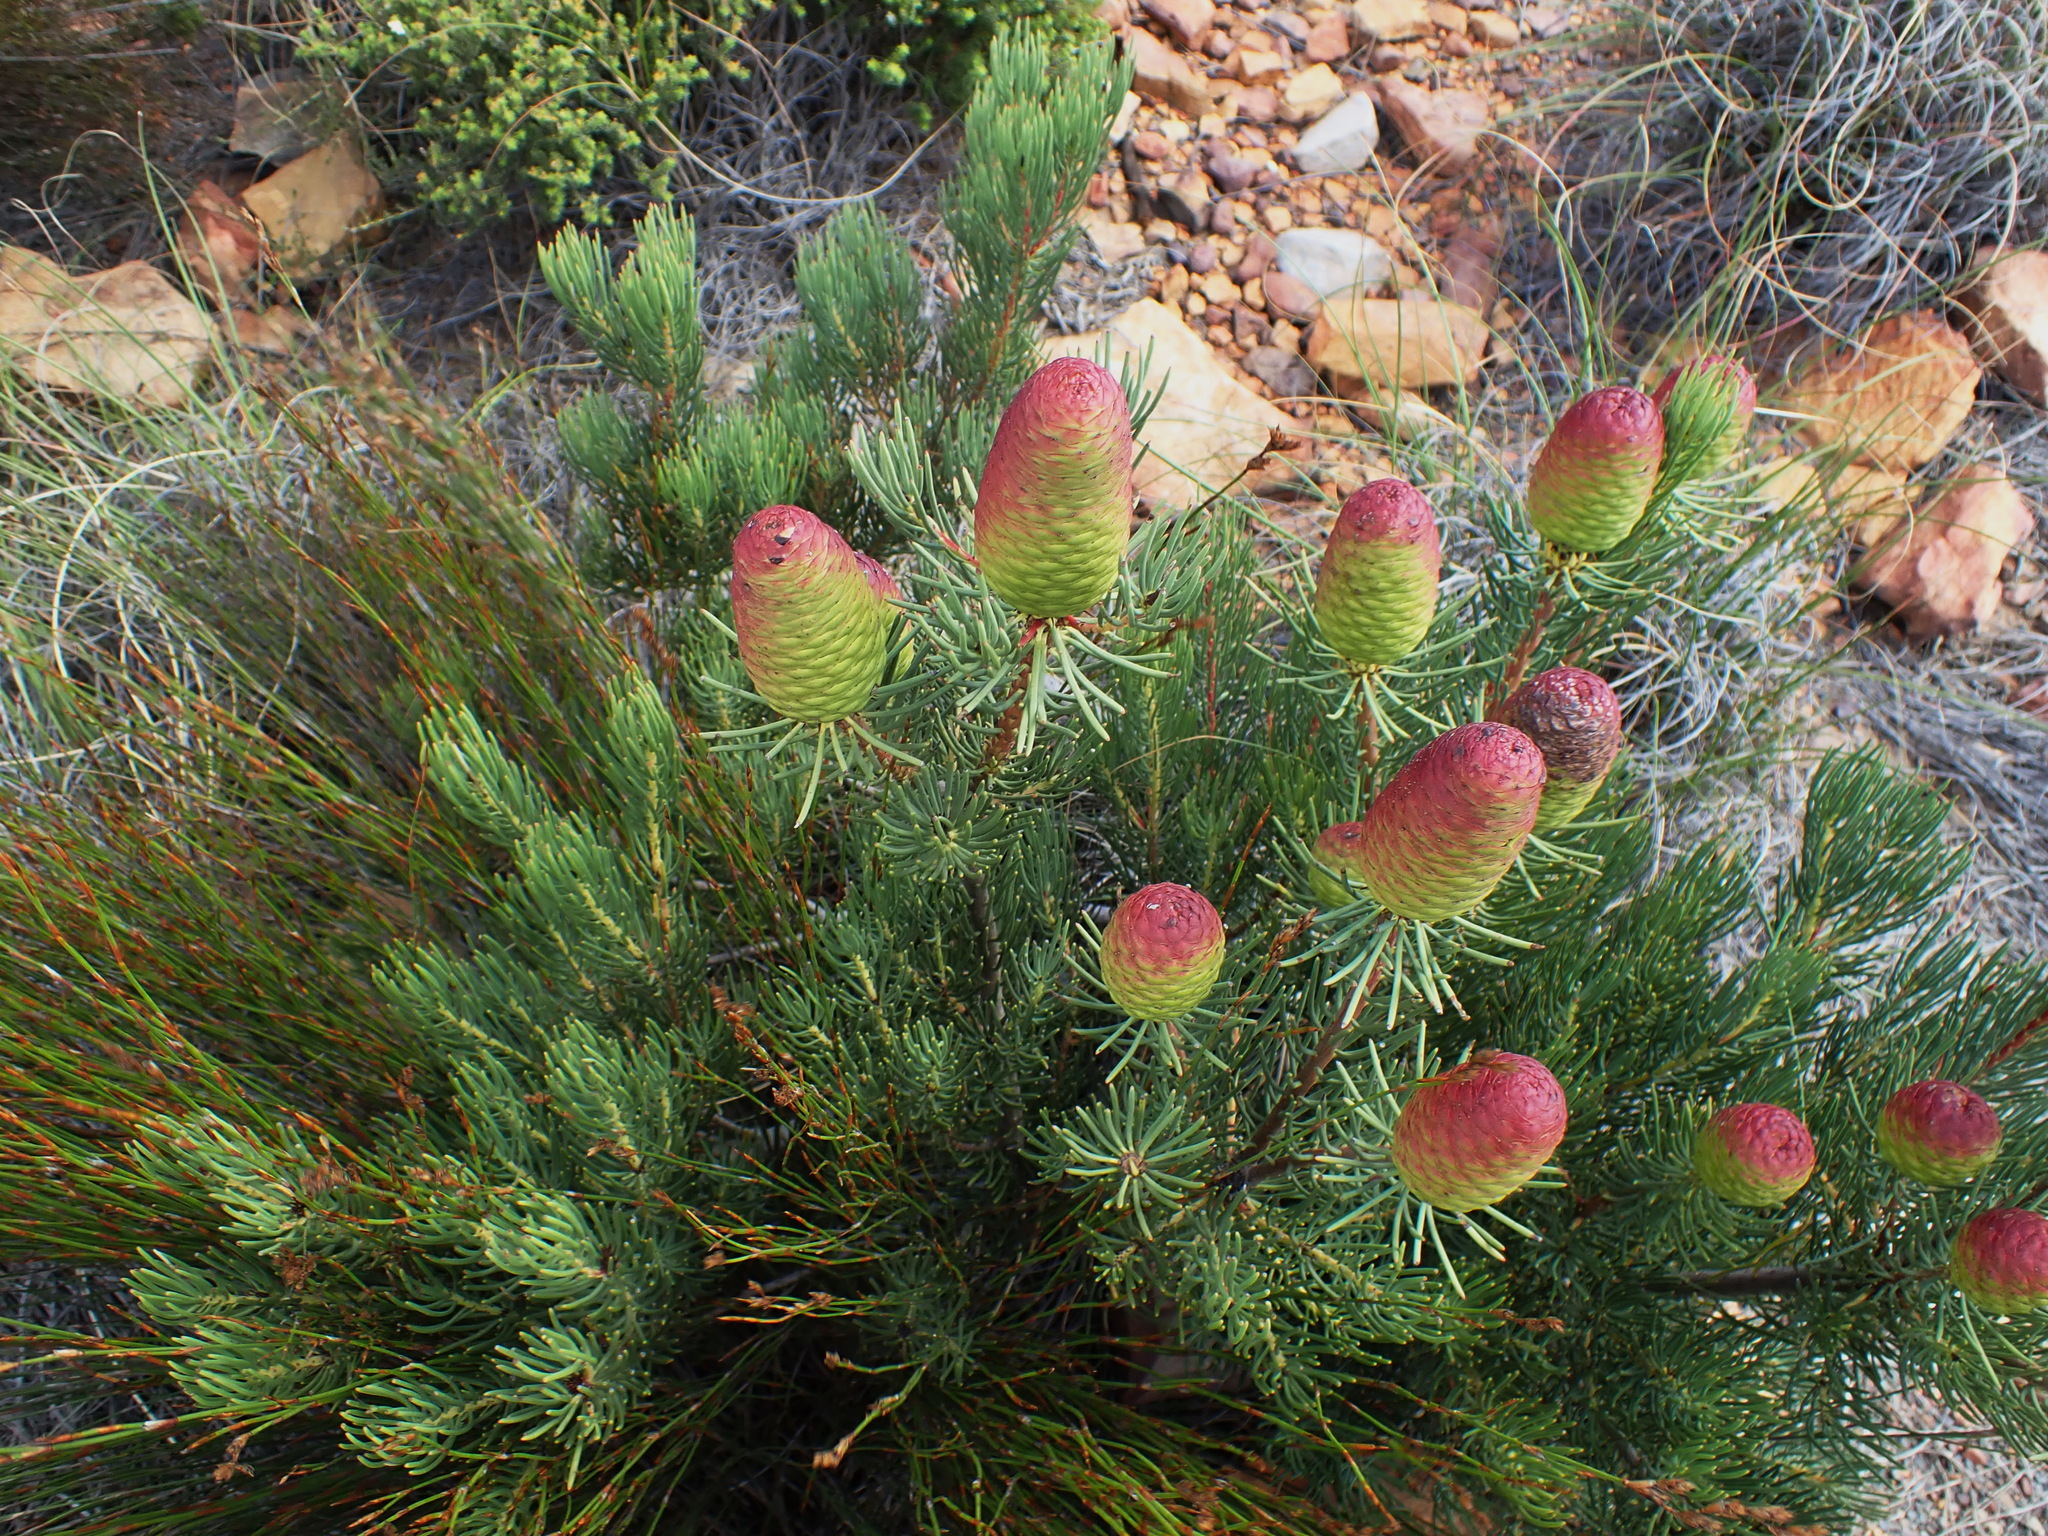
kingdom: Plantae
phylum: Tracheophyta
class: Magnoliopsida
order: Proteales
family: Proteaceae
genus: Leucadendron
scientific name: Leucadendron nobile
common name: Karoo conebush
